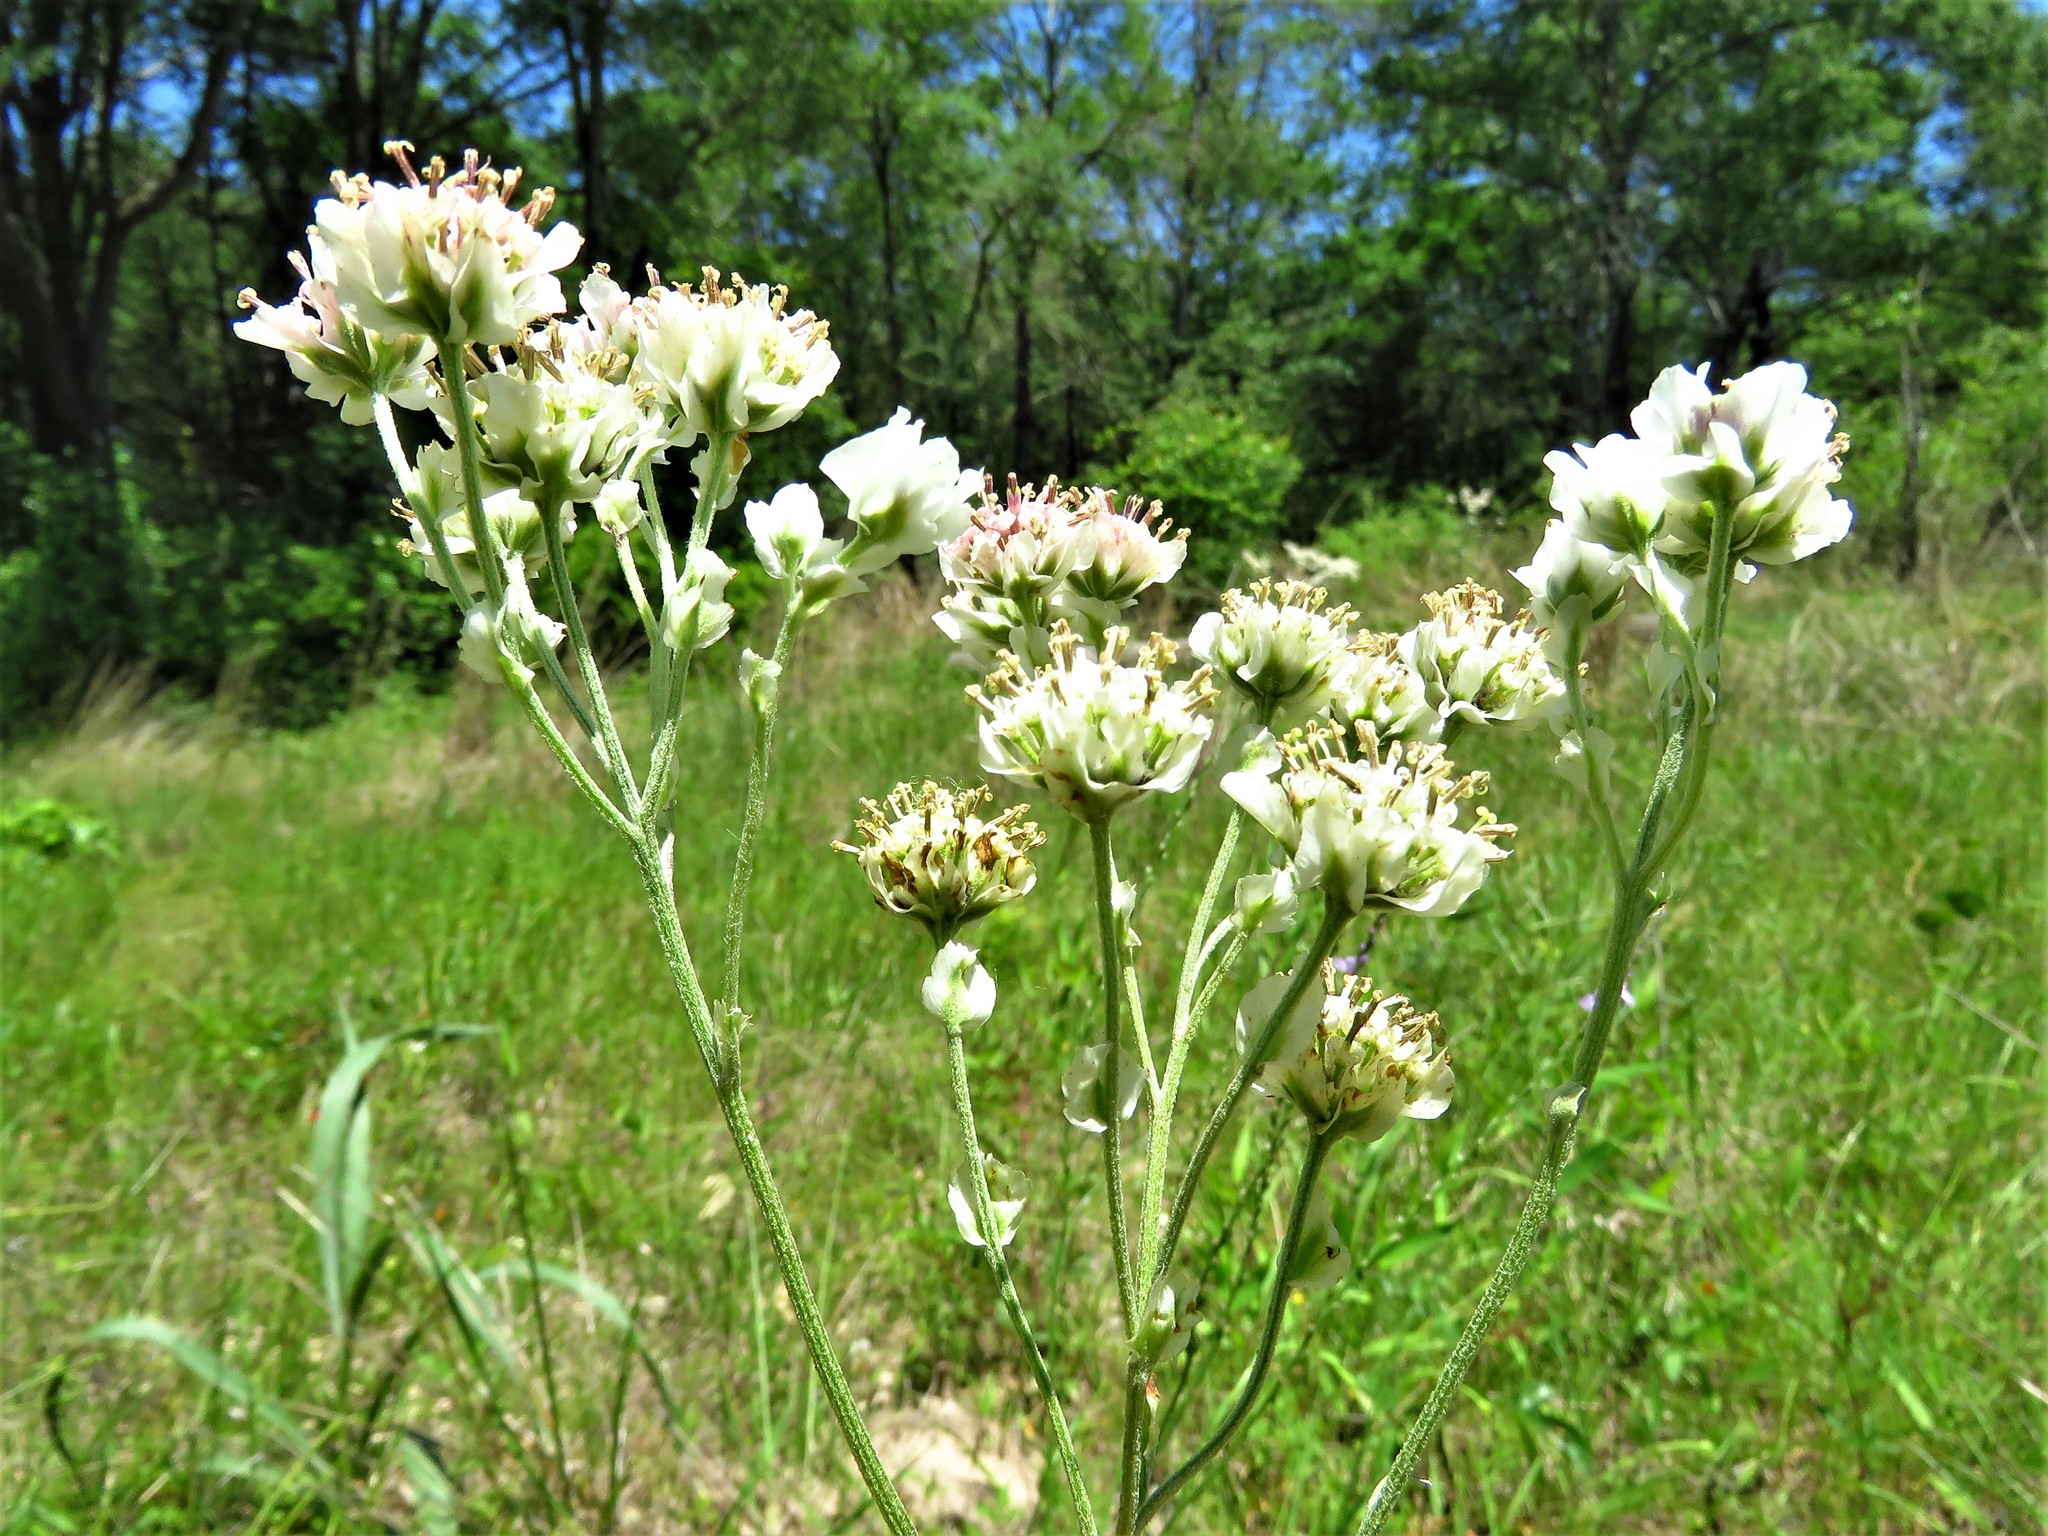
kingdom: Plantae
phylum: Tracheophyta
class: Magnoliopsida
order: Asterales
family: Asteraceae
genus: Hymenopappus
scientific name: Hymenopappus artemisiifolius
